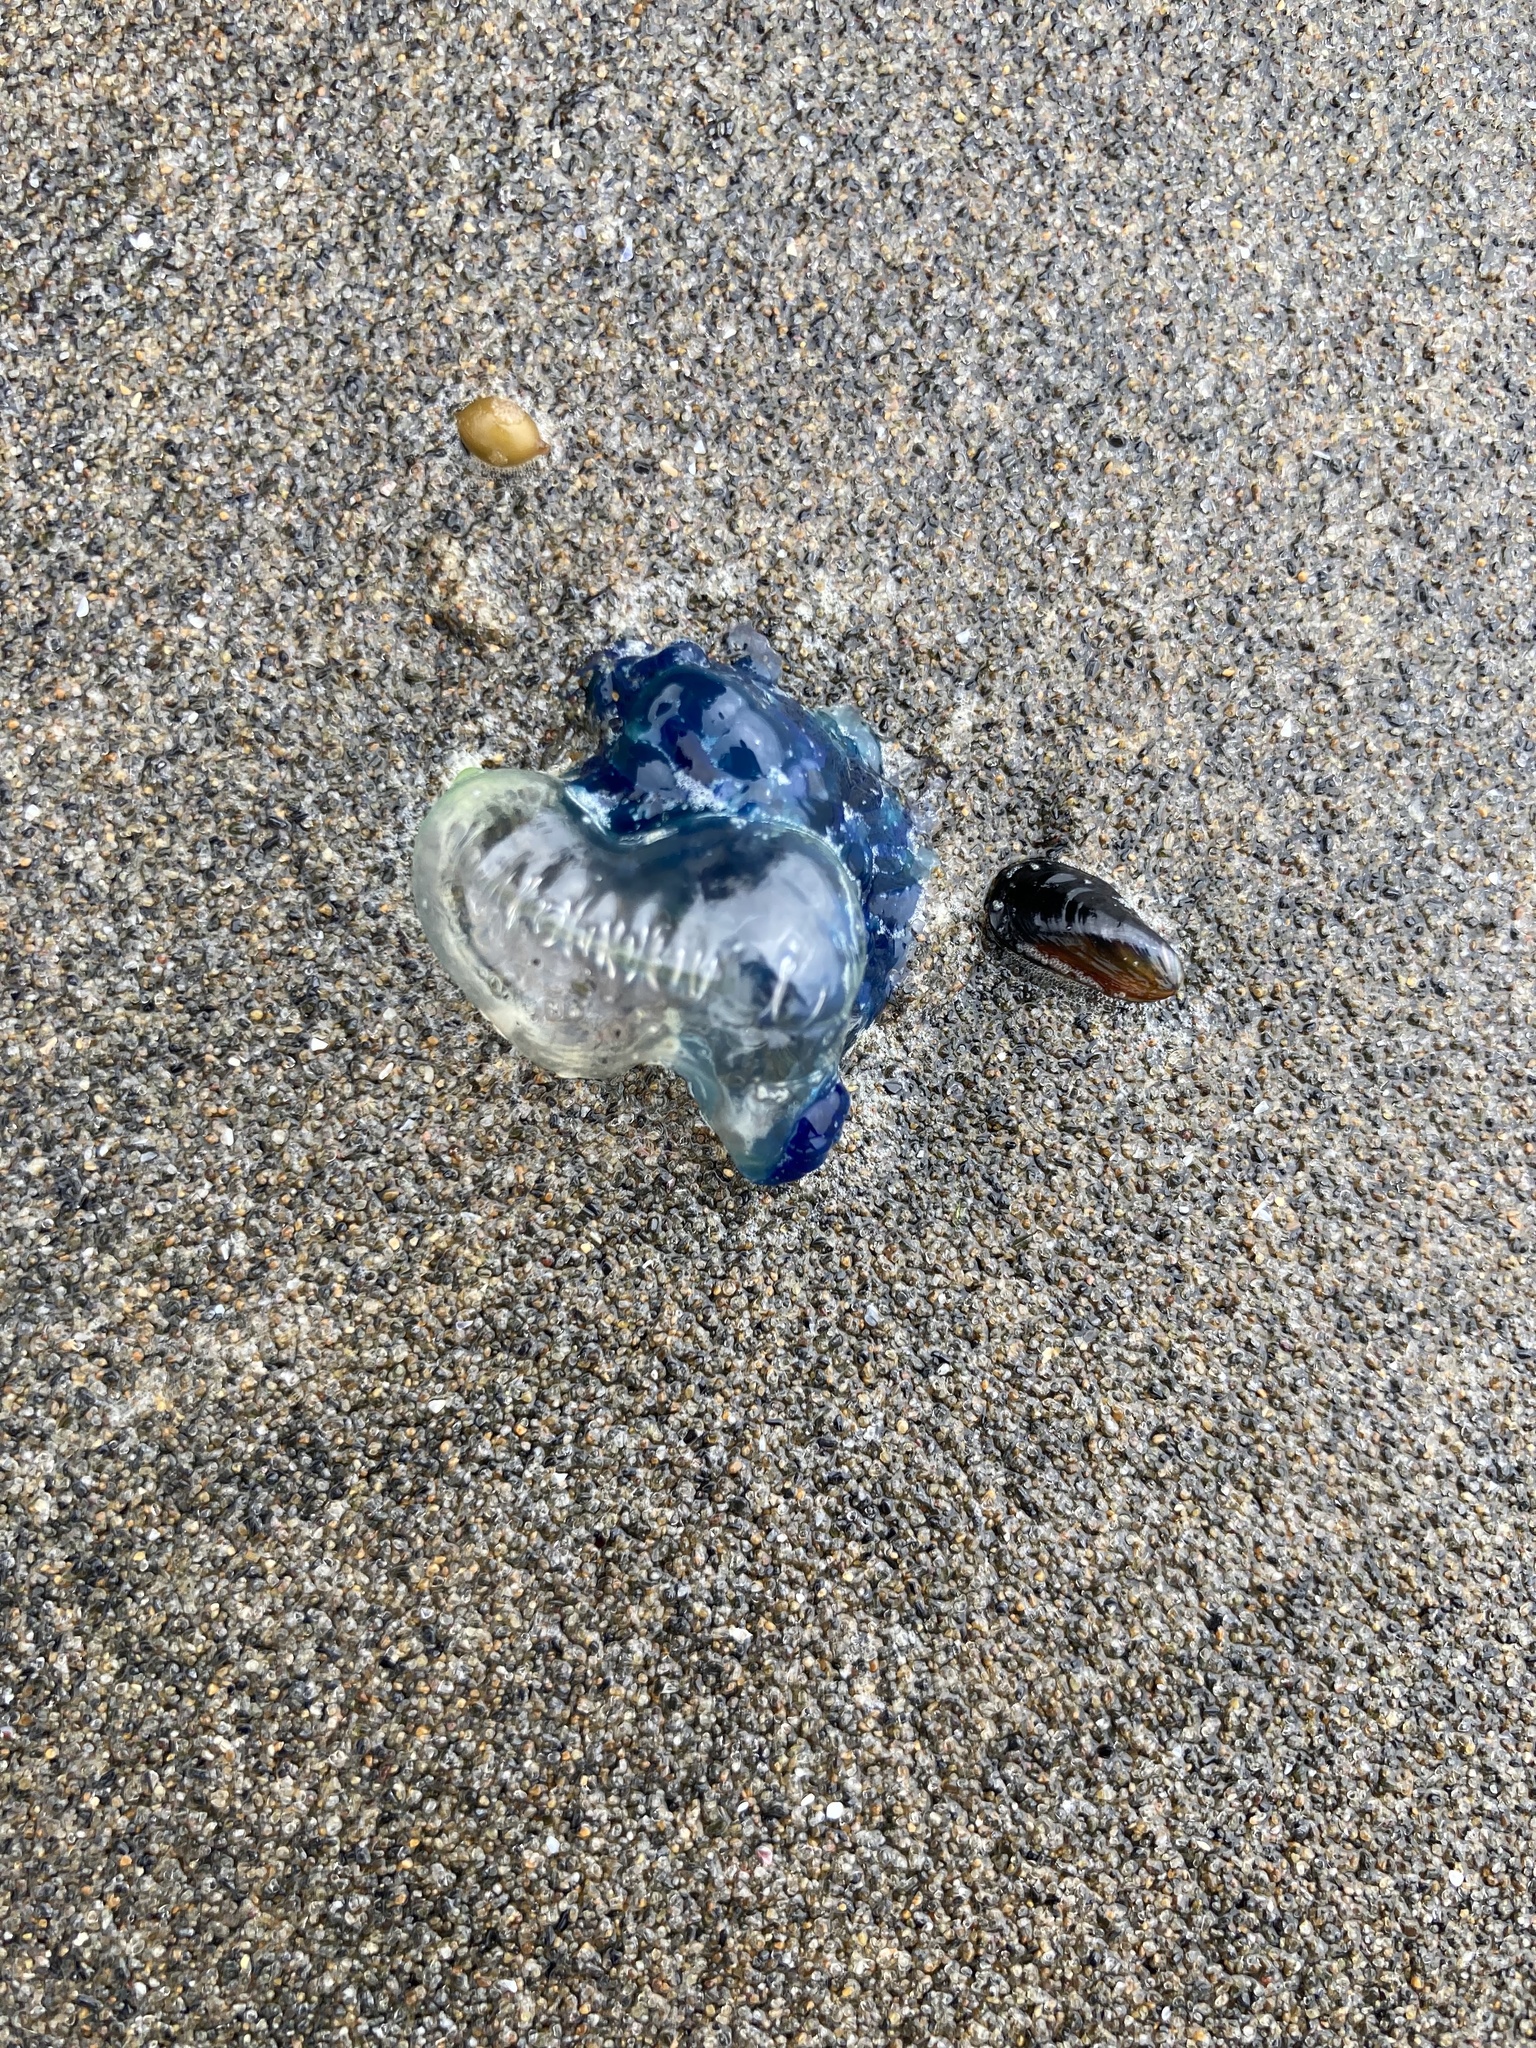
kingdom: Animalia
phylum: Cnidaria
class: Hydrozoa
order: Siphonophorae
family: Physaliidae
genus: Physalia
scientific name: Physalia physalis
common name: Portuguese man-of-war
